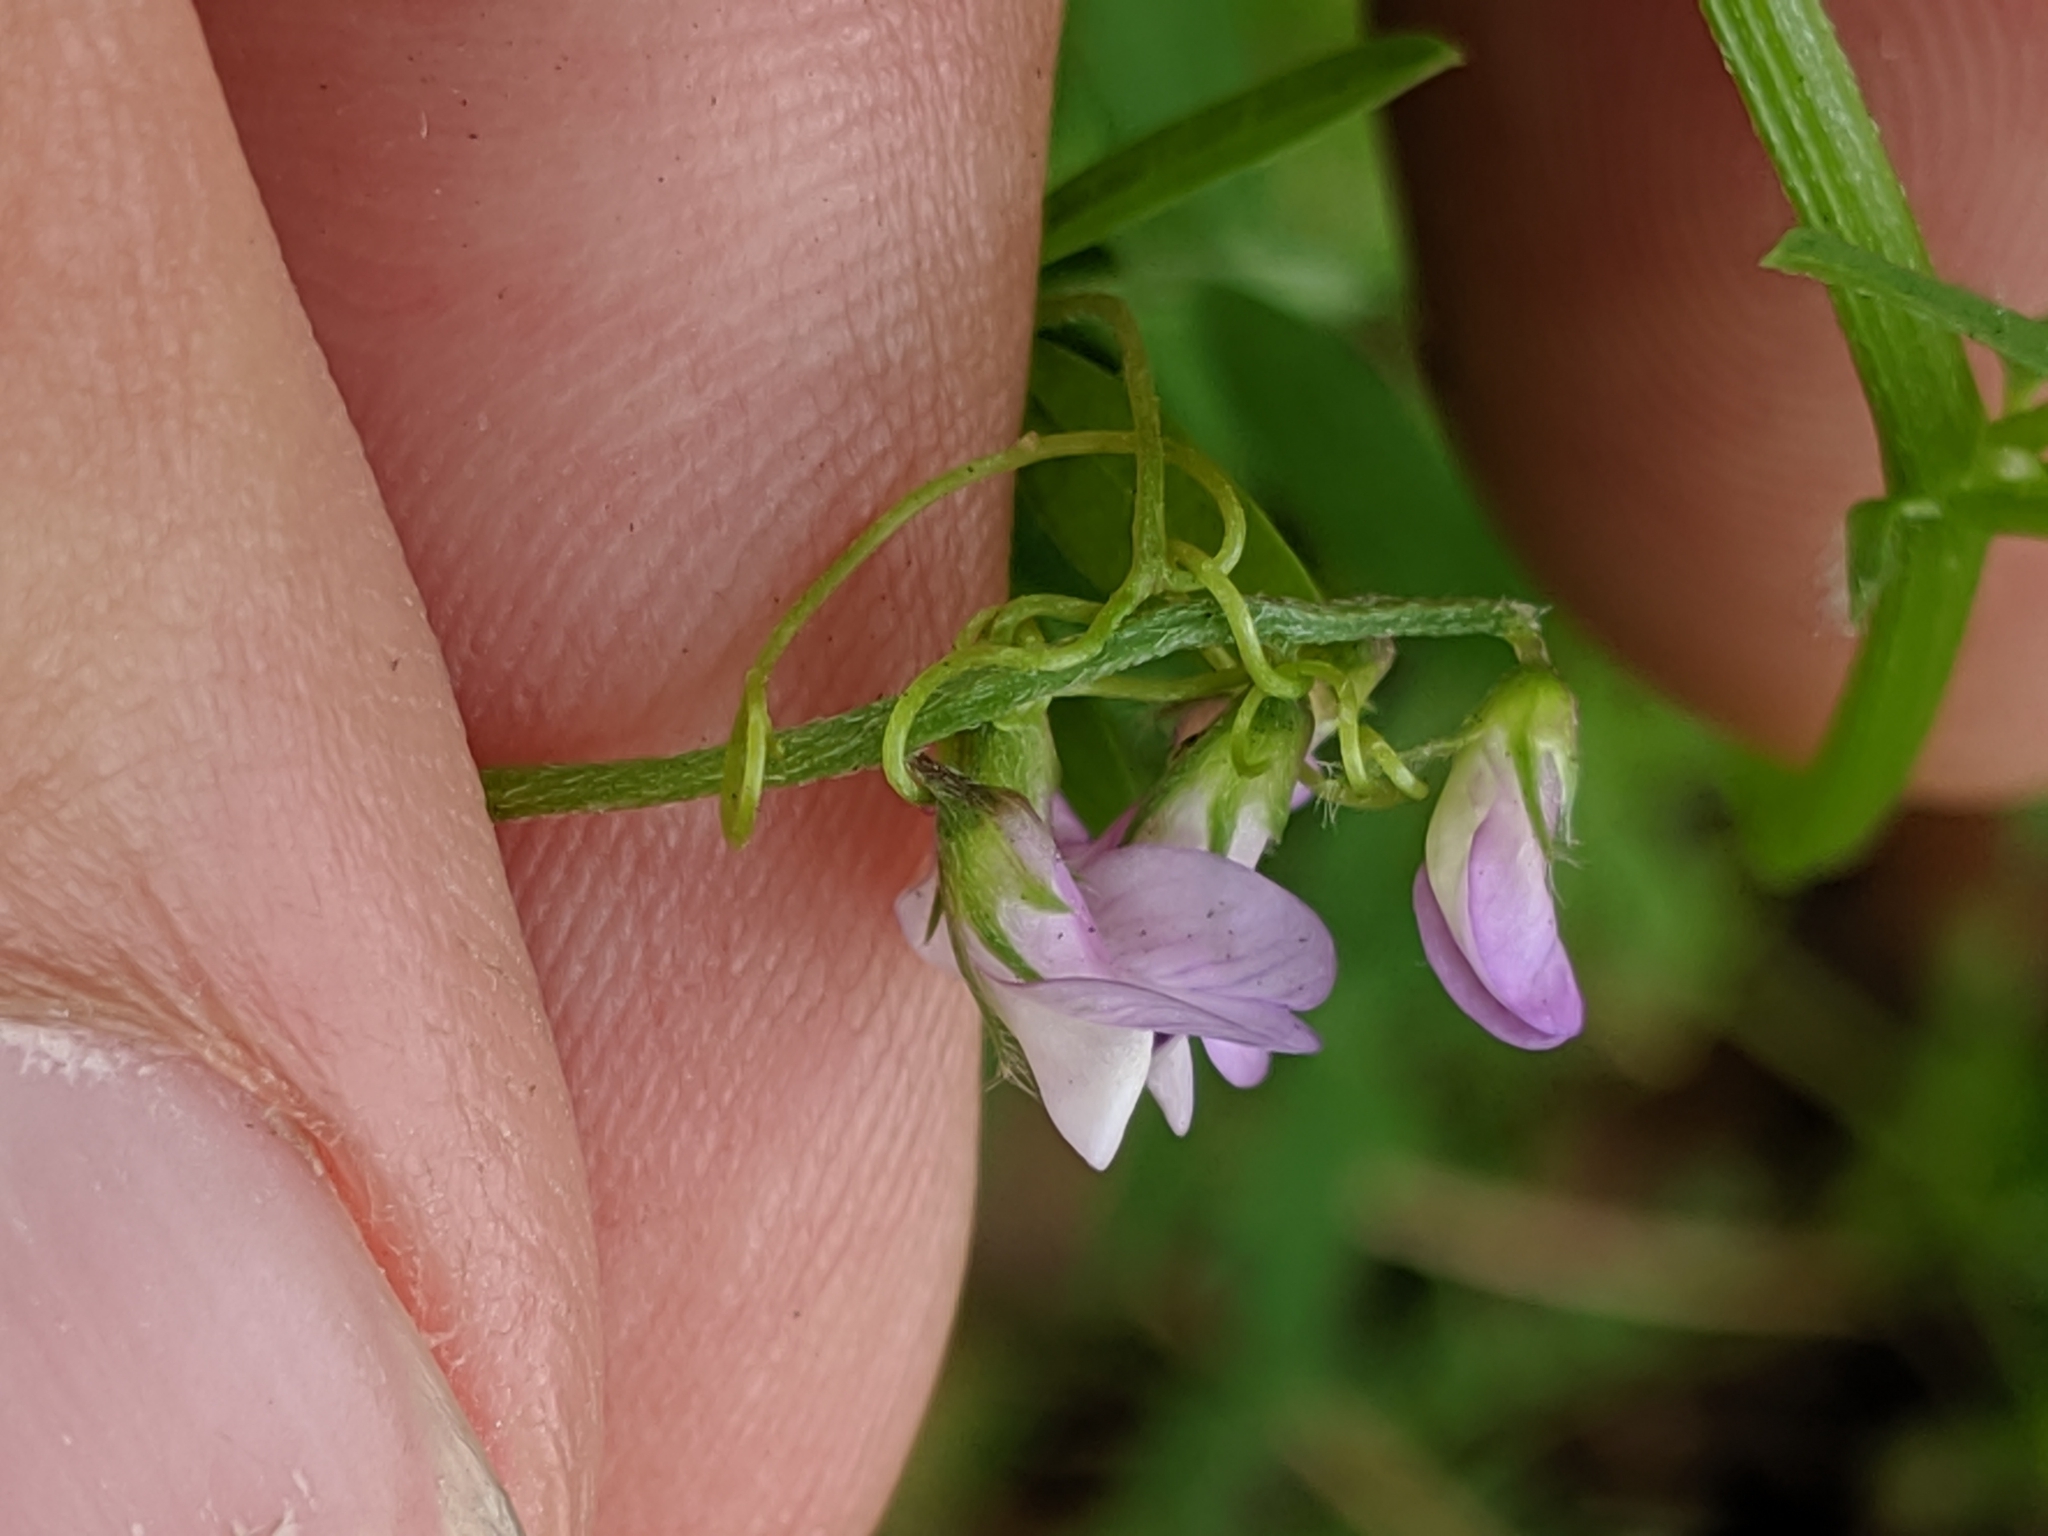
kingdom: Plantae
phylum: Tracheophyta
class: Magnoliopsida
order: Fabales
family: Fabaceae
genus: Vicia
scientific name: Vicia disperma
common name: European vetch
